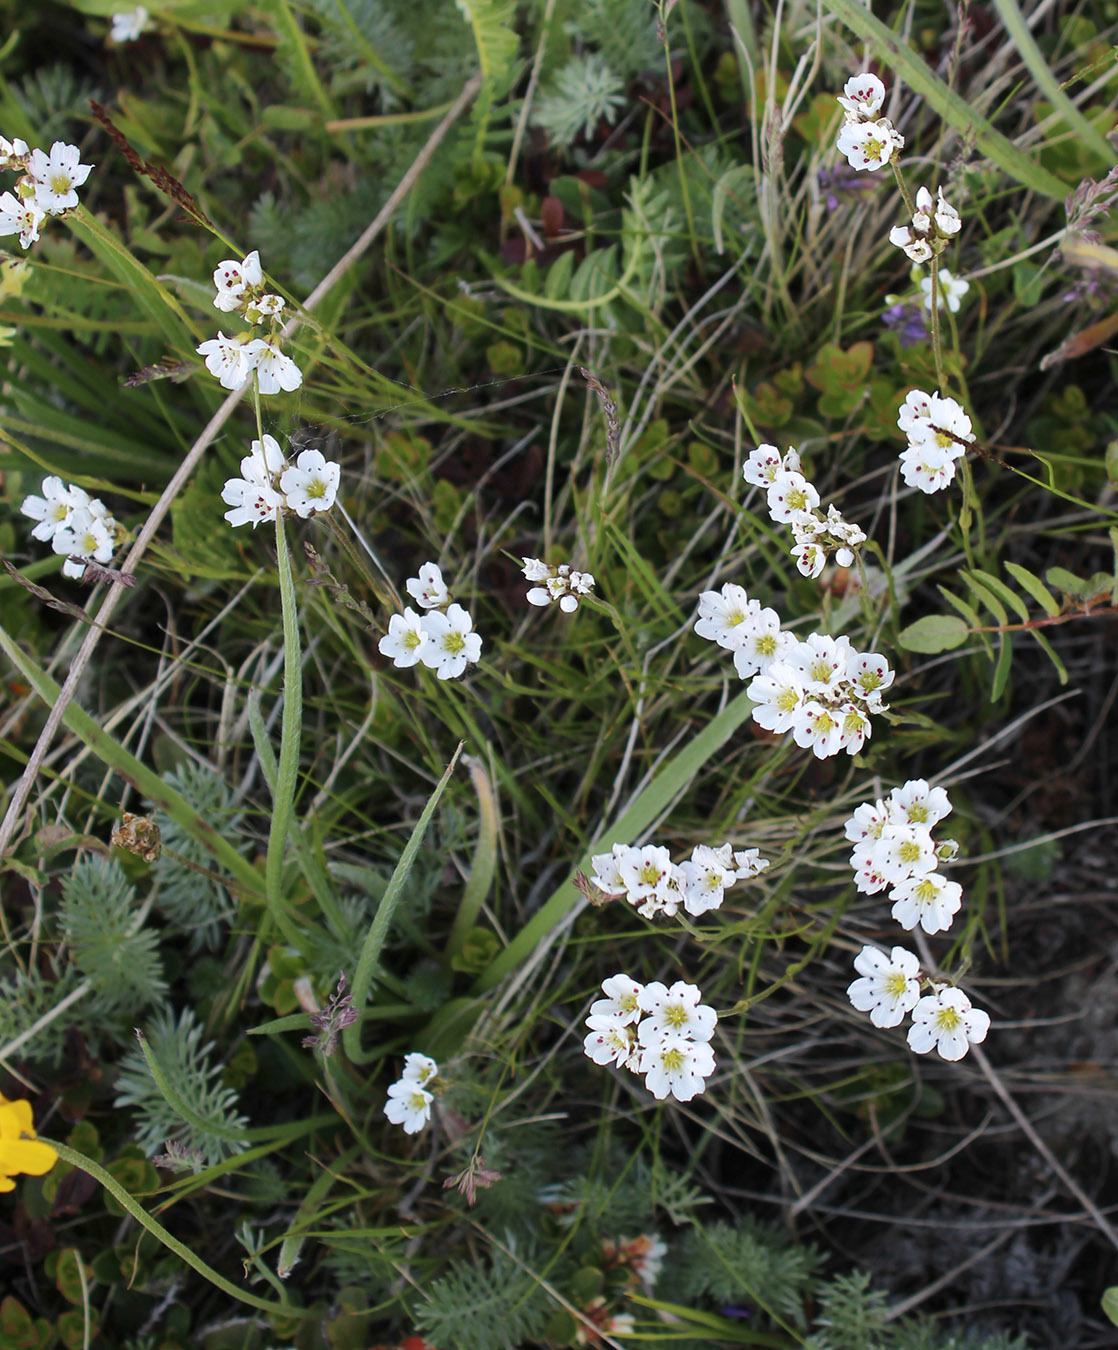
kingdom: Plantae
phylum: Tracheophyta
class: Magnoliopsida
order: Caryophyllales
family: Caryophyllaceae
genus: Eremogone
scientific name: Eremogone lychnidea
